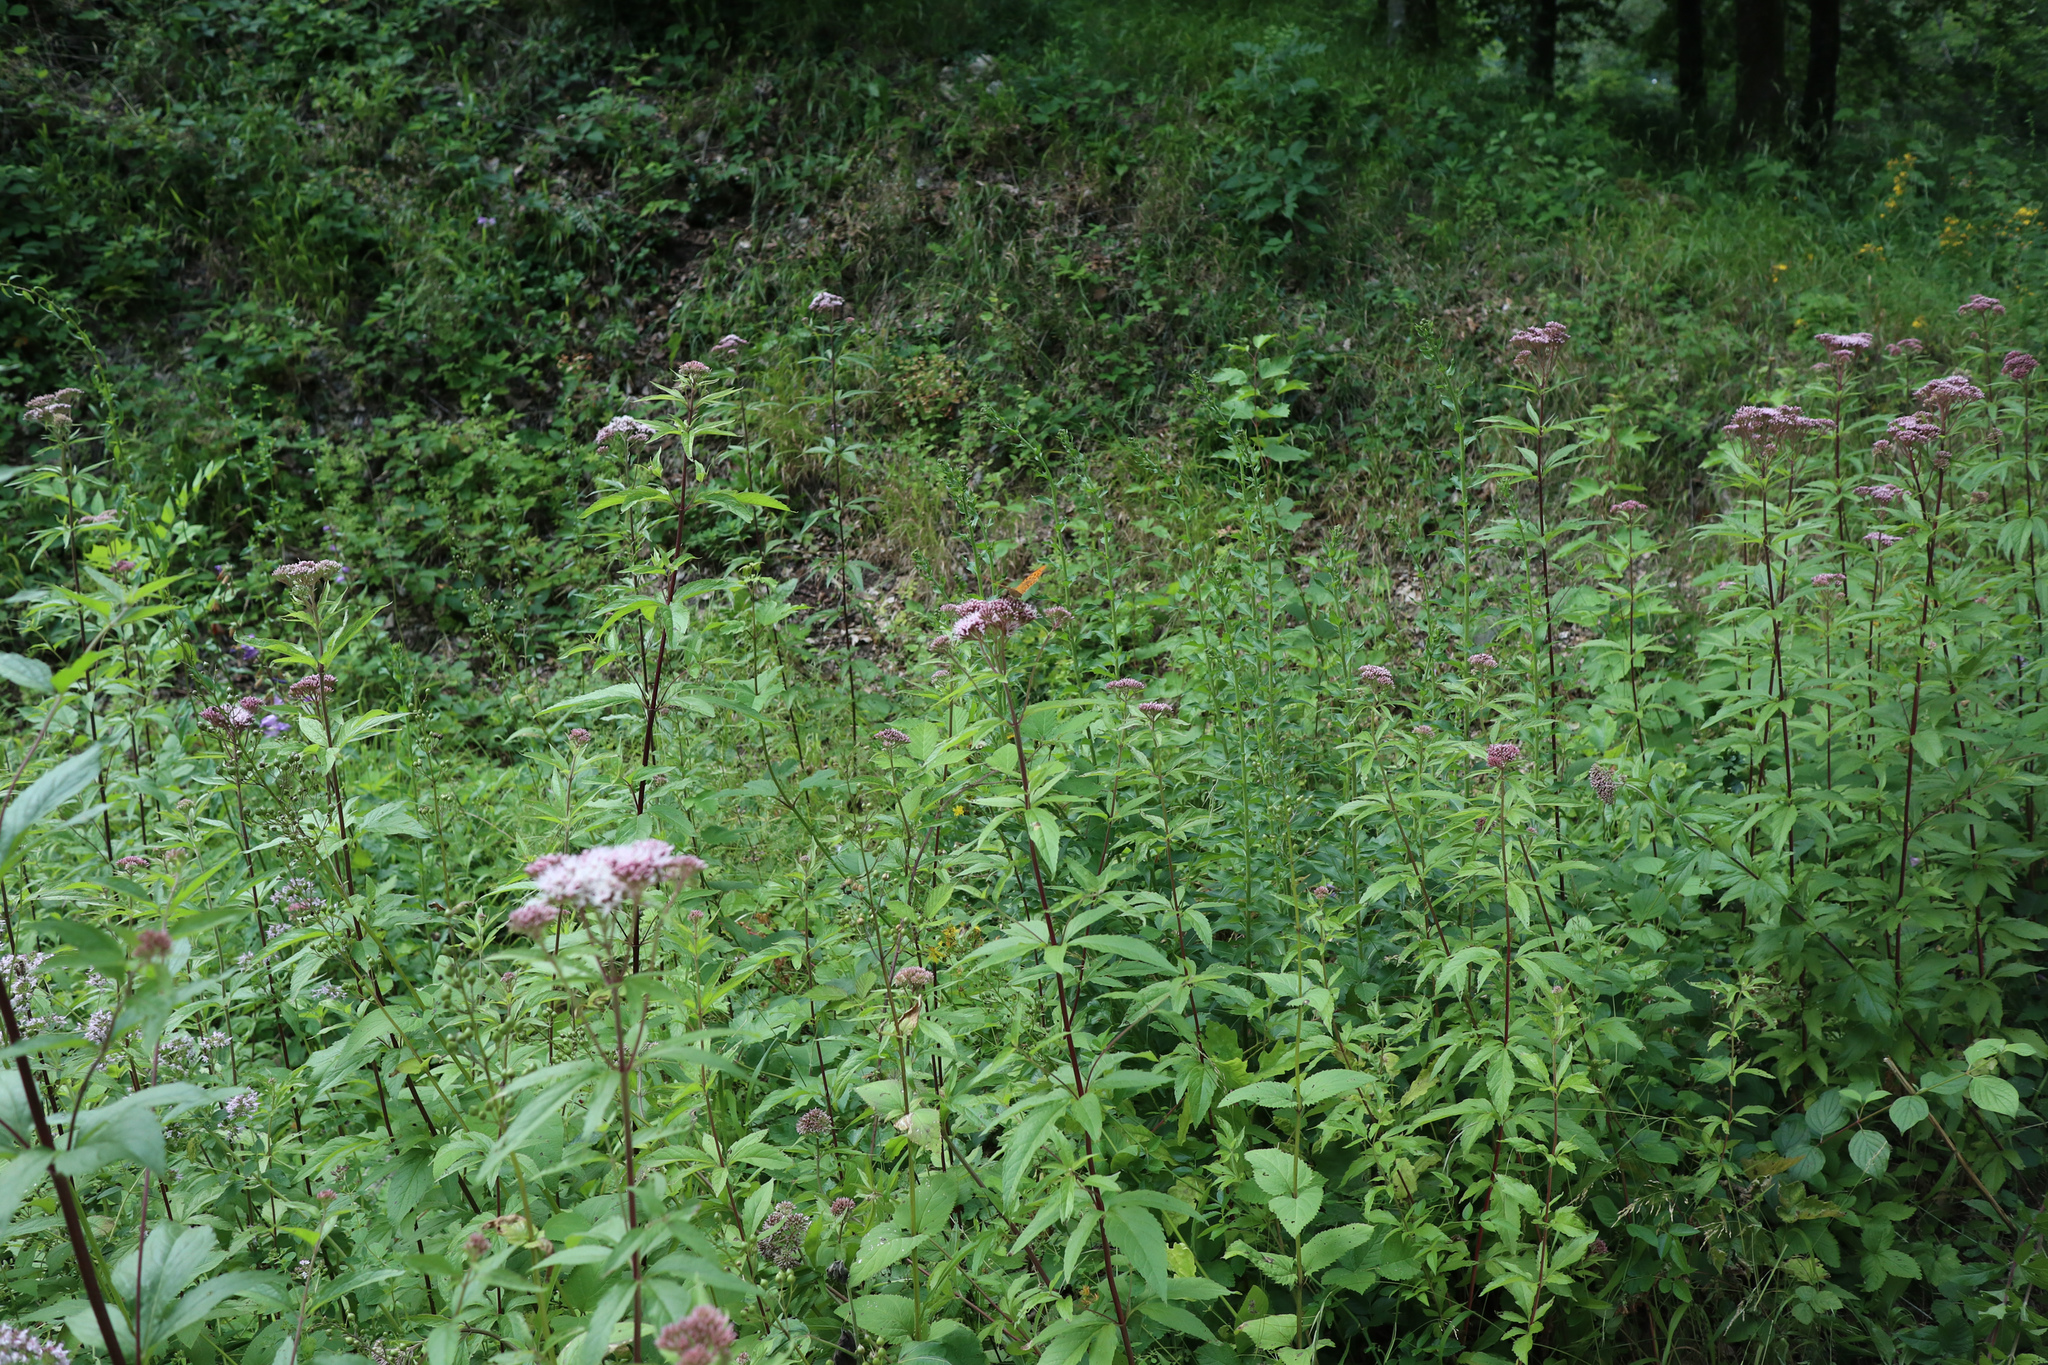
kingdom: Plantae
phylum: Tracheophyta
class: Magnoliopsida
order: Asterales
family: Asteraceae
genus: Eupatorium
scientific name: Eupatorium cannabinum
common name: Hemp-agrimony
